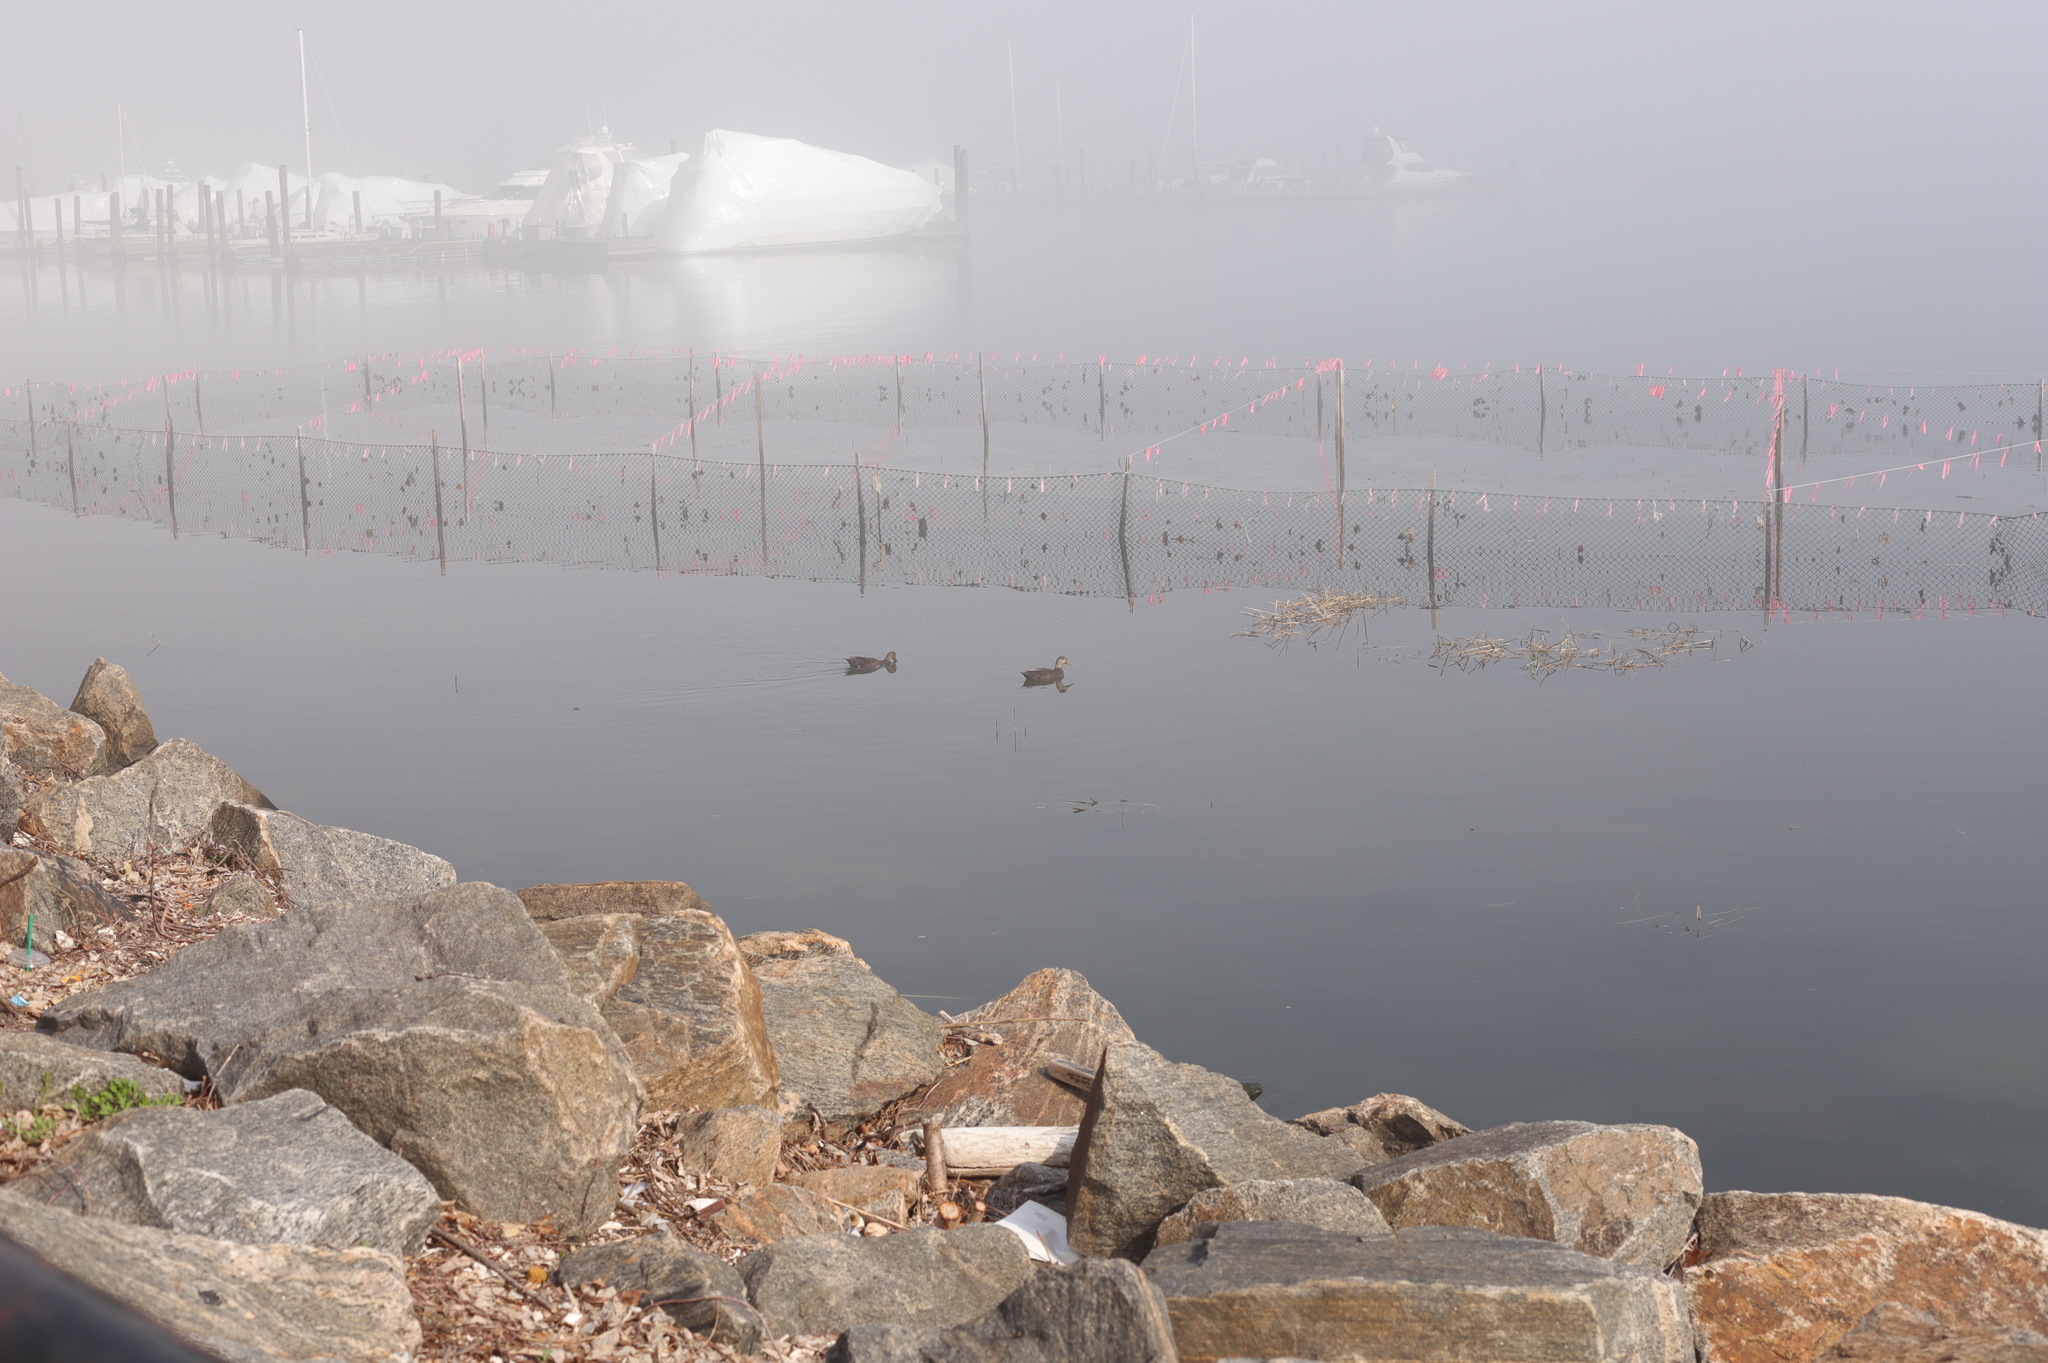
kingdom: Animalia
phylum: Chordata
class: Aves
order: Anseriformes
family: Anatidae
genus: Anas
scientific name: Anas rubripes
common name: American black duck
